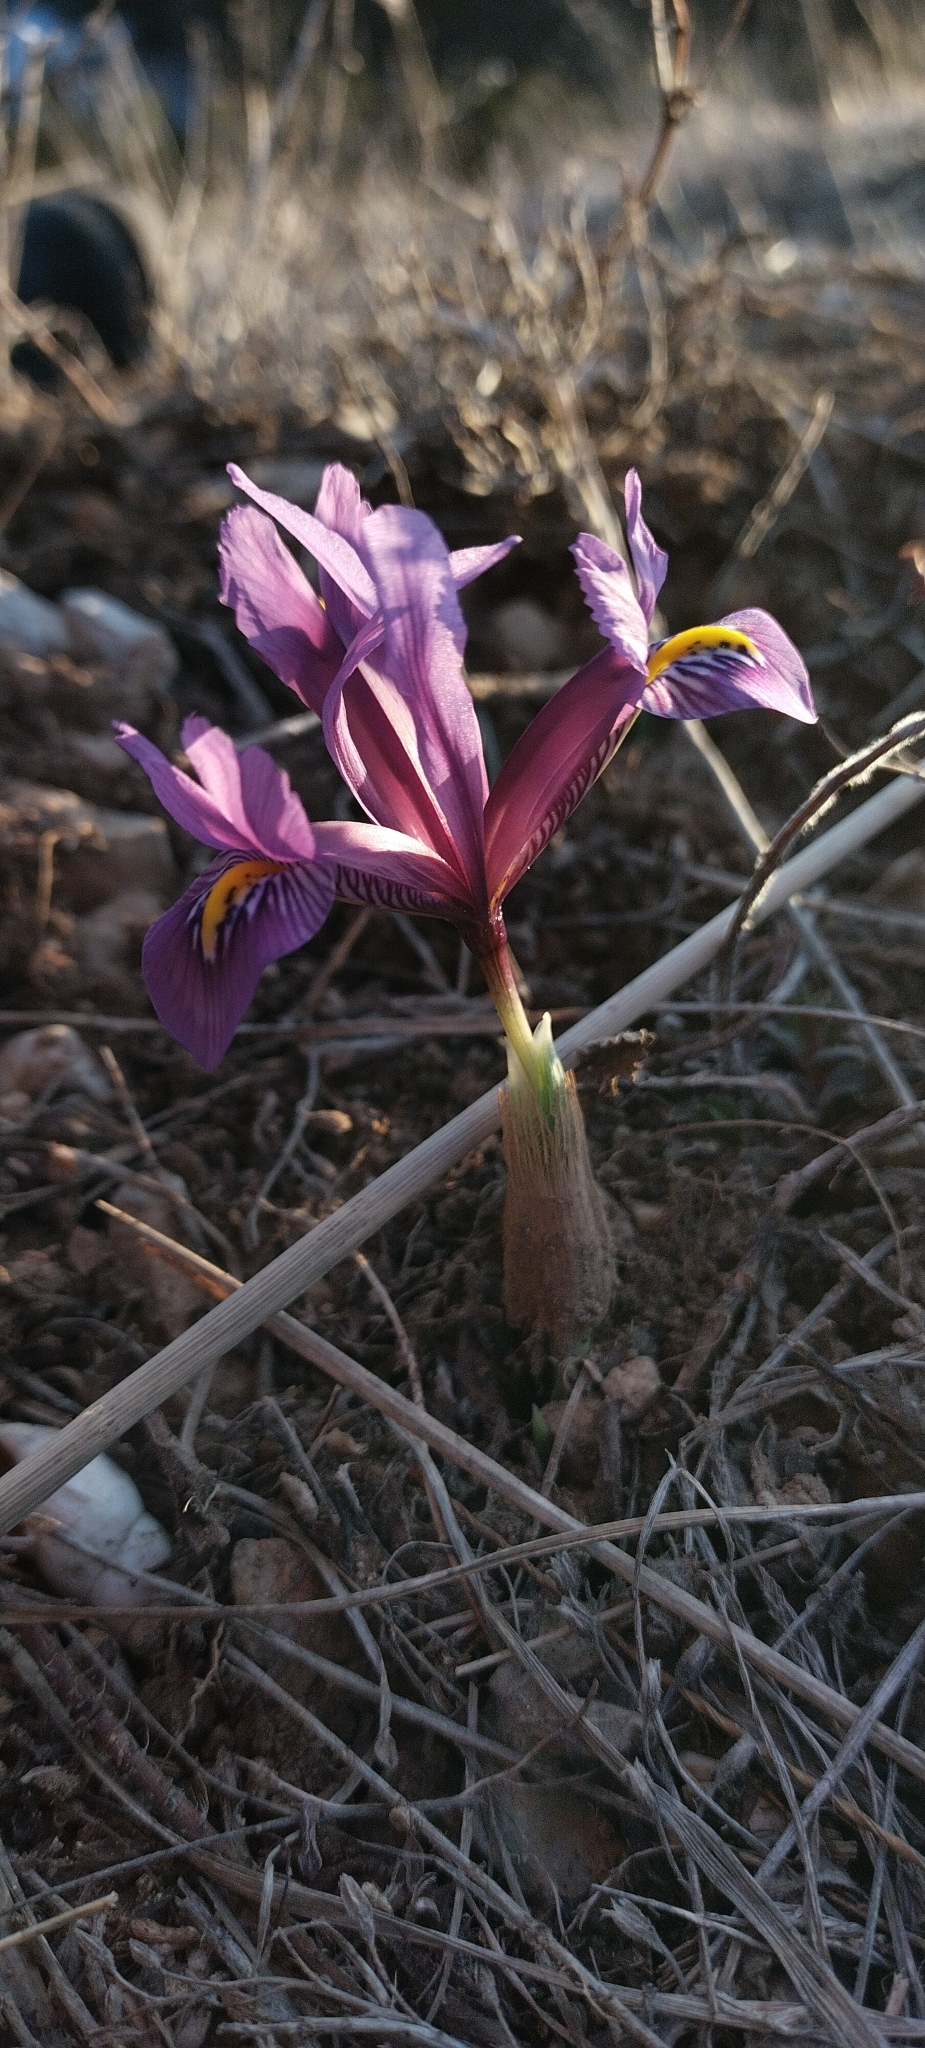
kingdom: Plantae
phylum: Tracheophyta
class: Liliopsida
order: Asparagales
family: Iridaceae
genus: Iris
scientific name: Iris reticulata
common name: Netted iris
